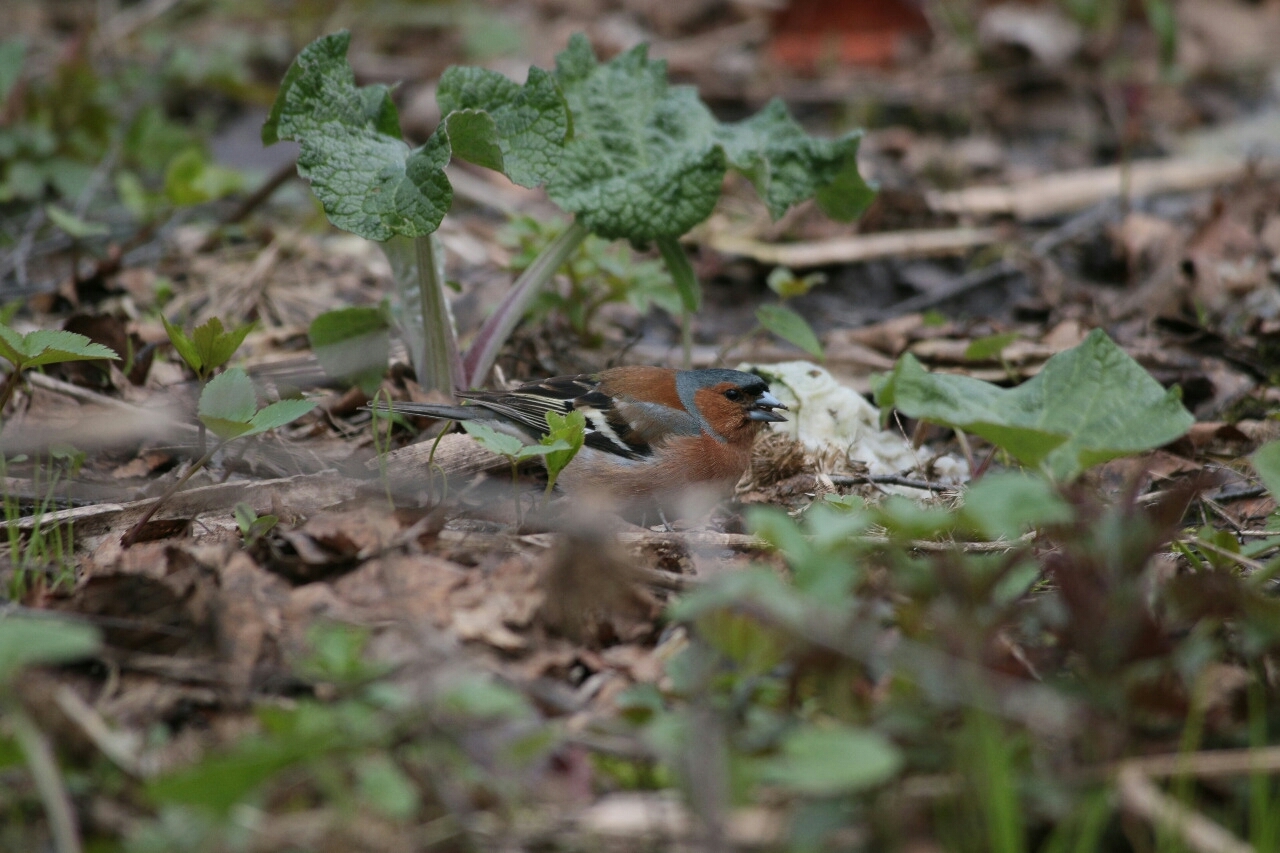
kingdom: Animalia
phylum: Chordata
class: Aves
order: Passeriformes
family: Fringillidae
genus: Fringilla
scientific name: Fringilla coelebs
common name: Common chaffinch
